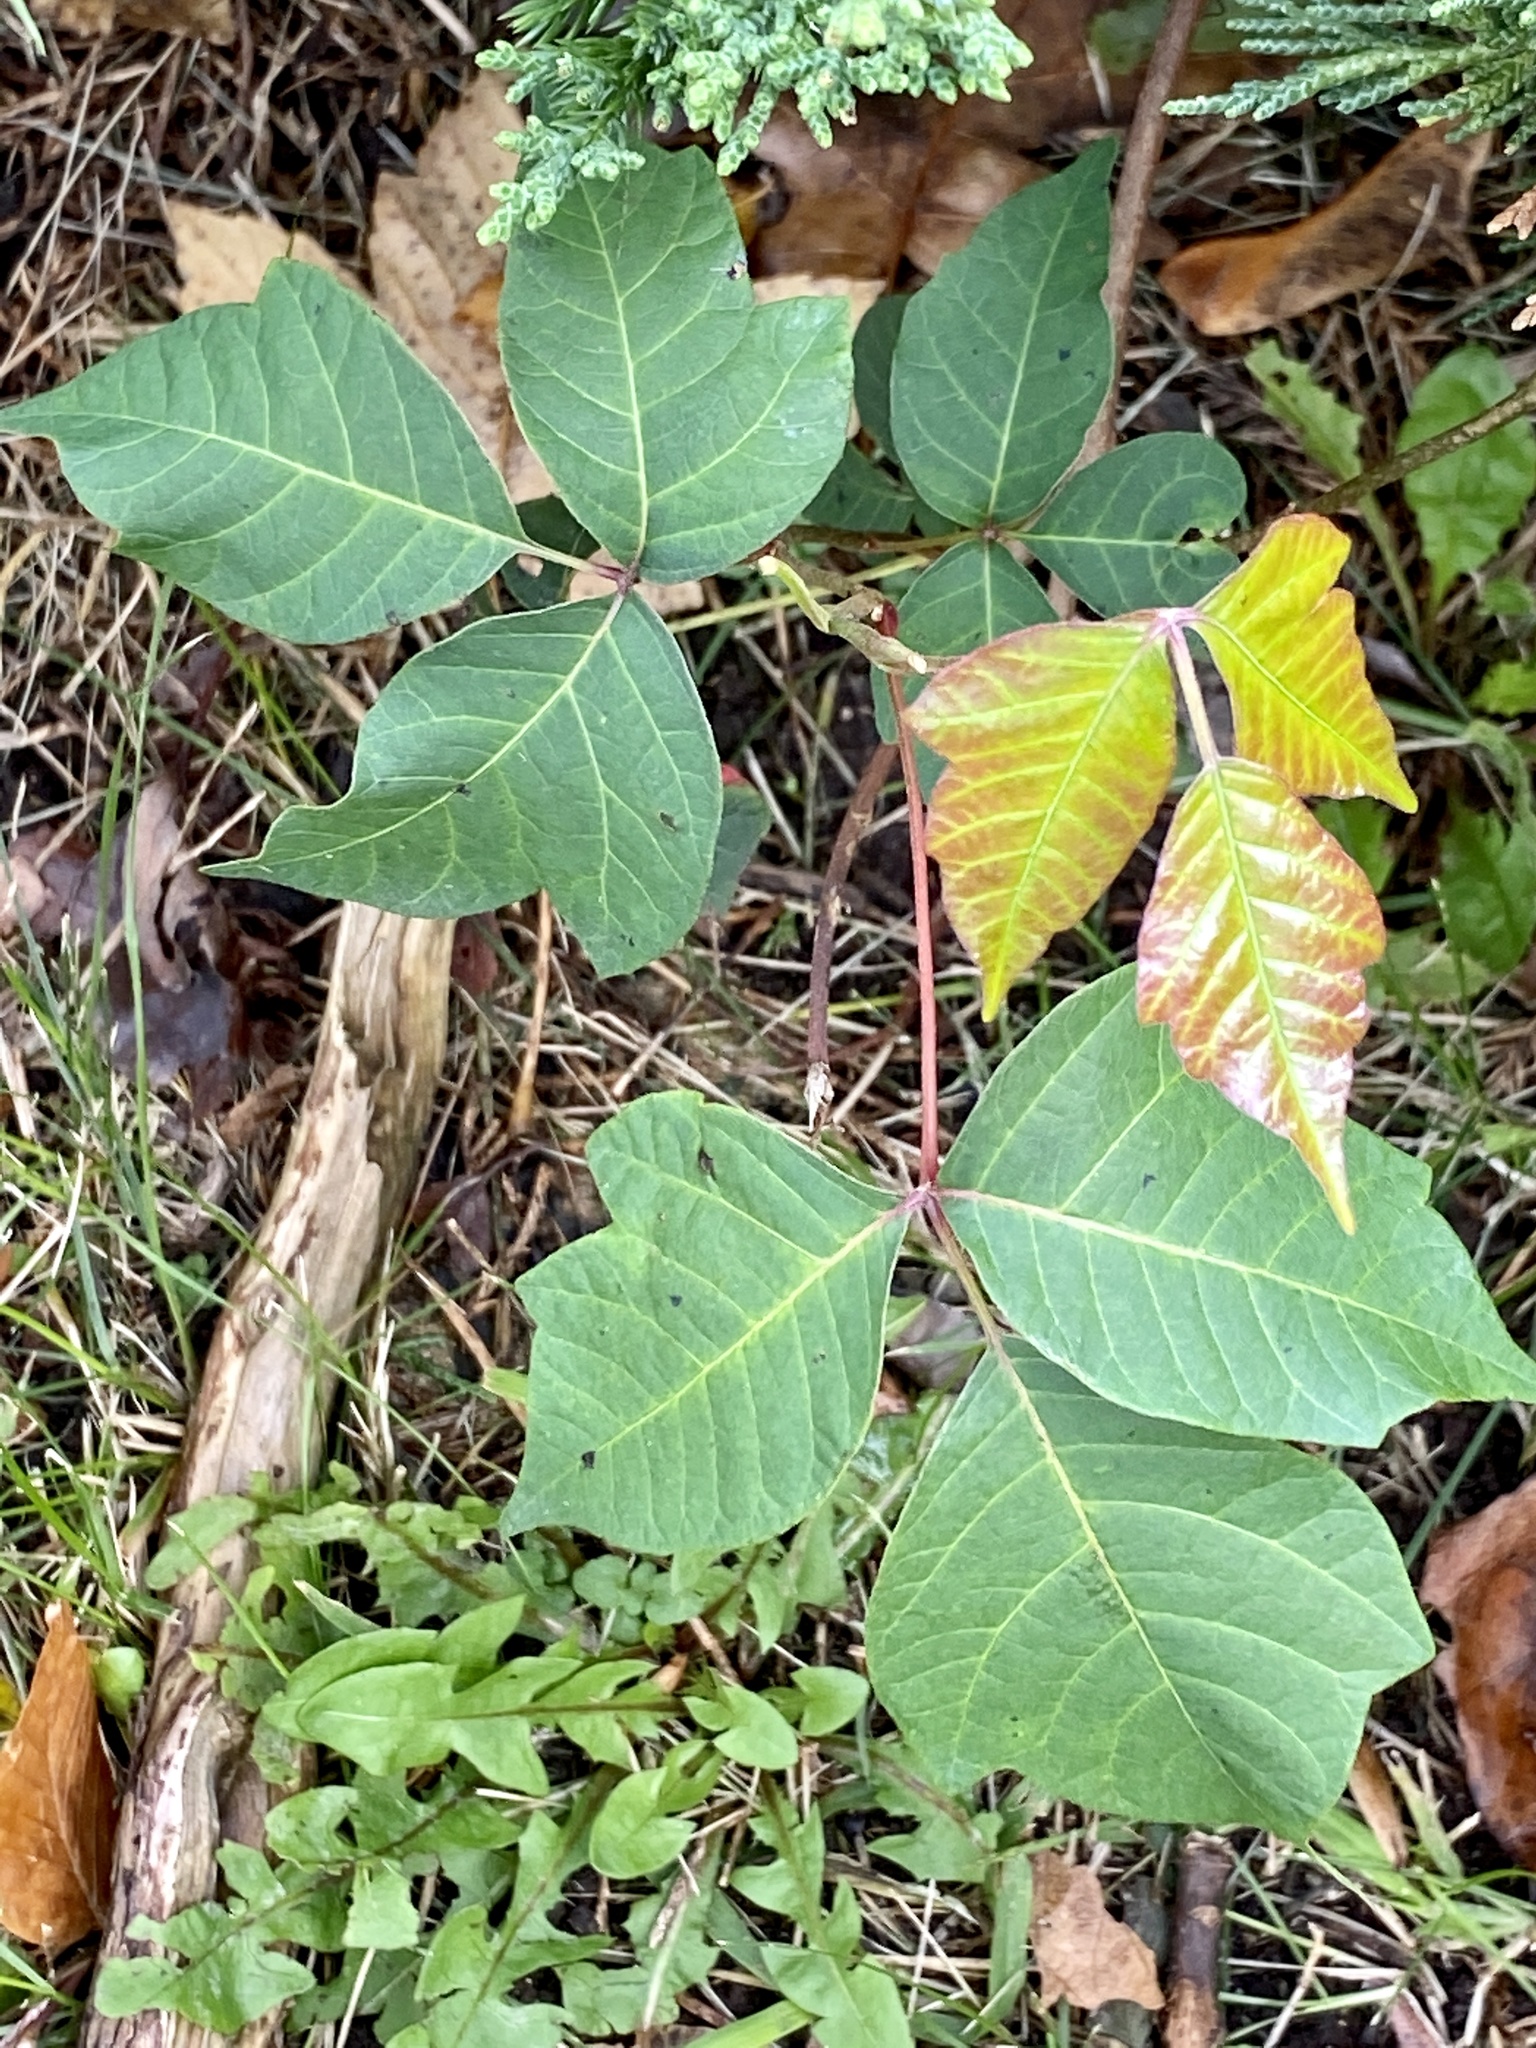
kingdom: Plantae
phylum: Tracheophyta
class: Magnoliopsida
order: Sapindales
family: Anacardiaceae
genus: Toxicodendron
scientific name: Toxicodendron radicans
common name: Poison ivy
